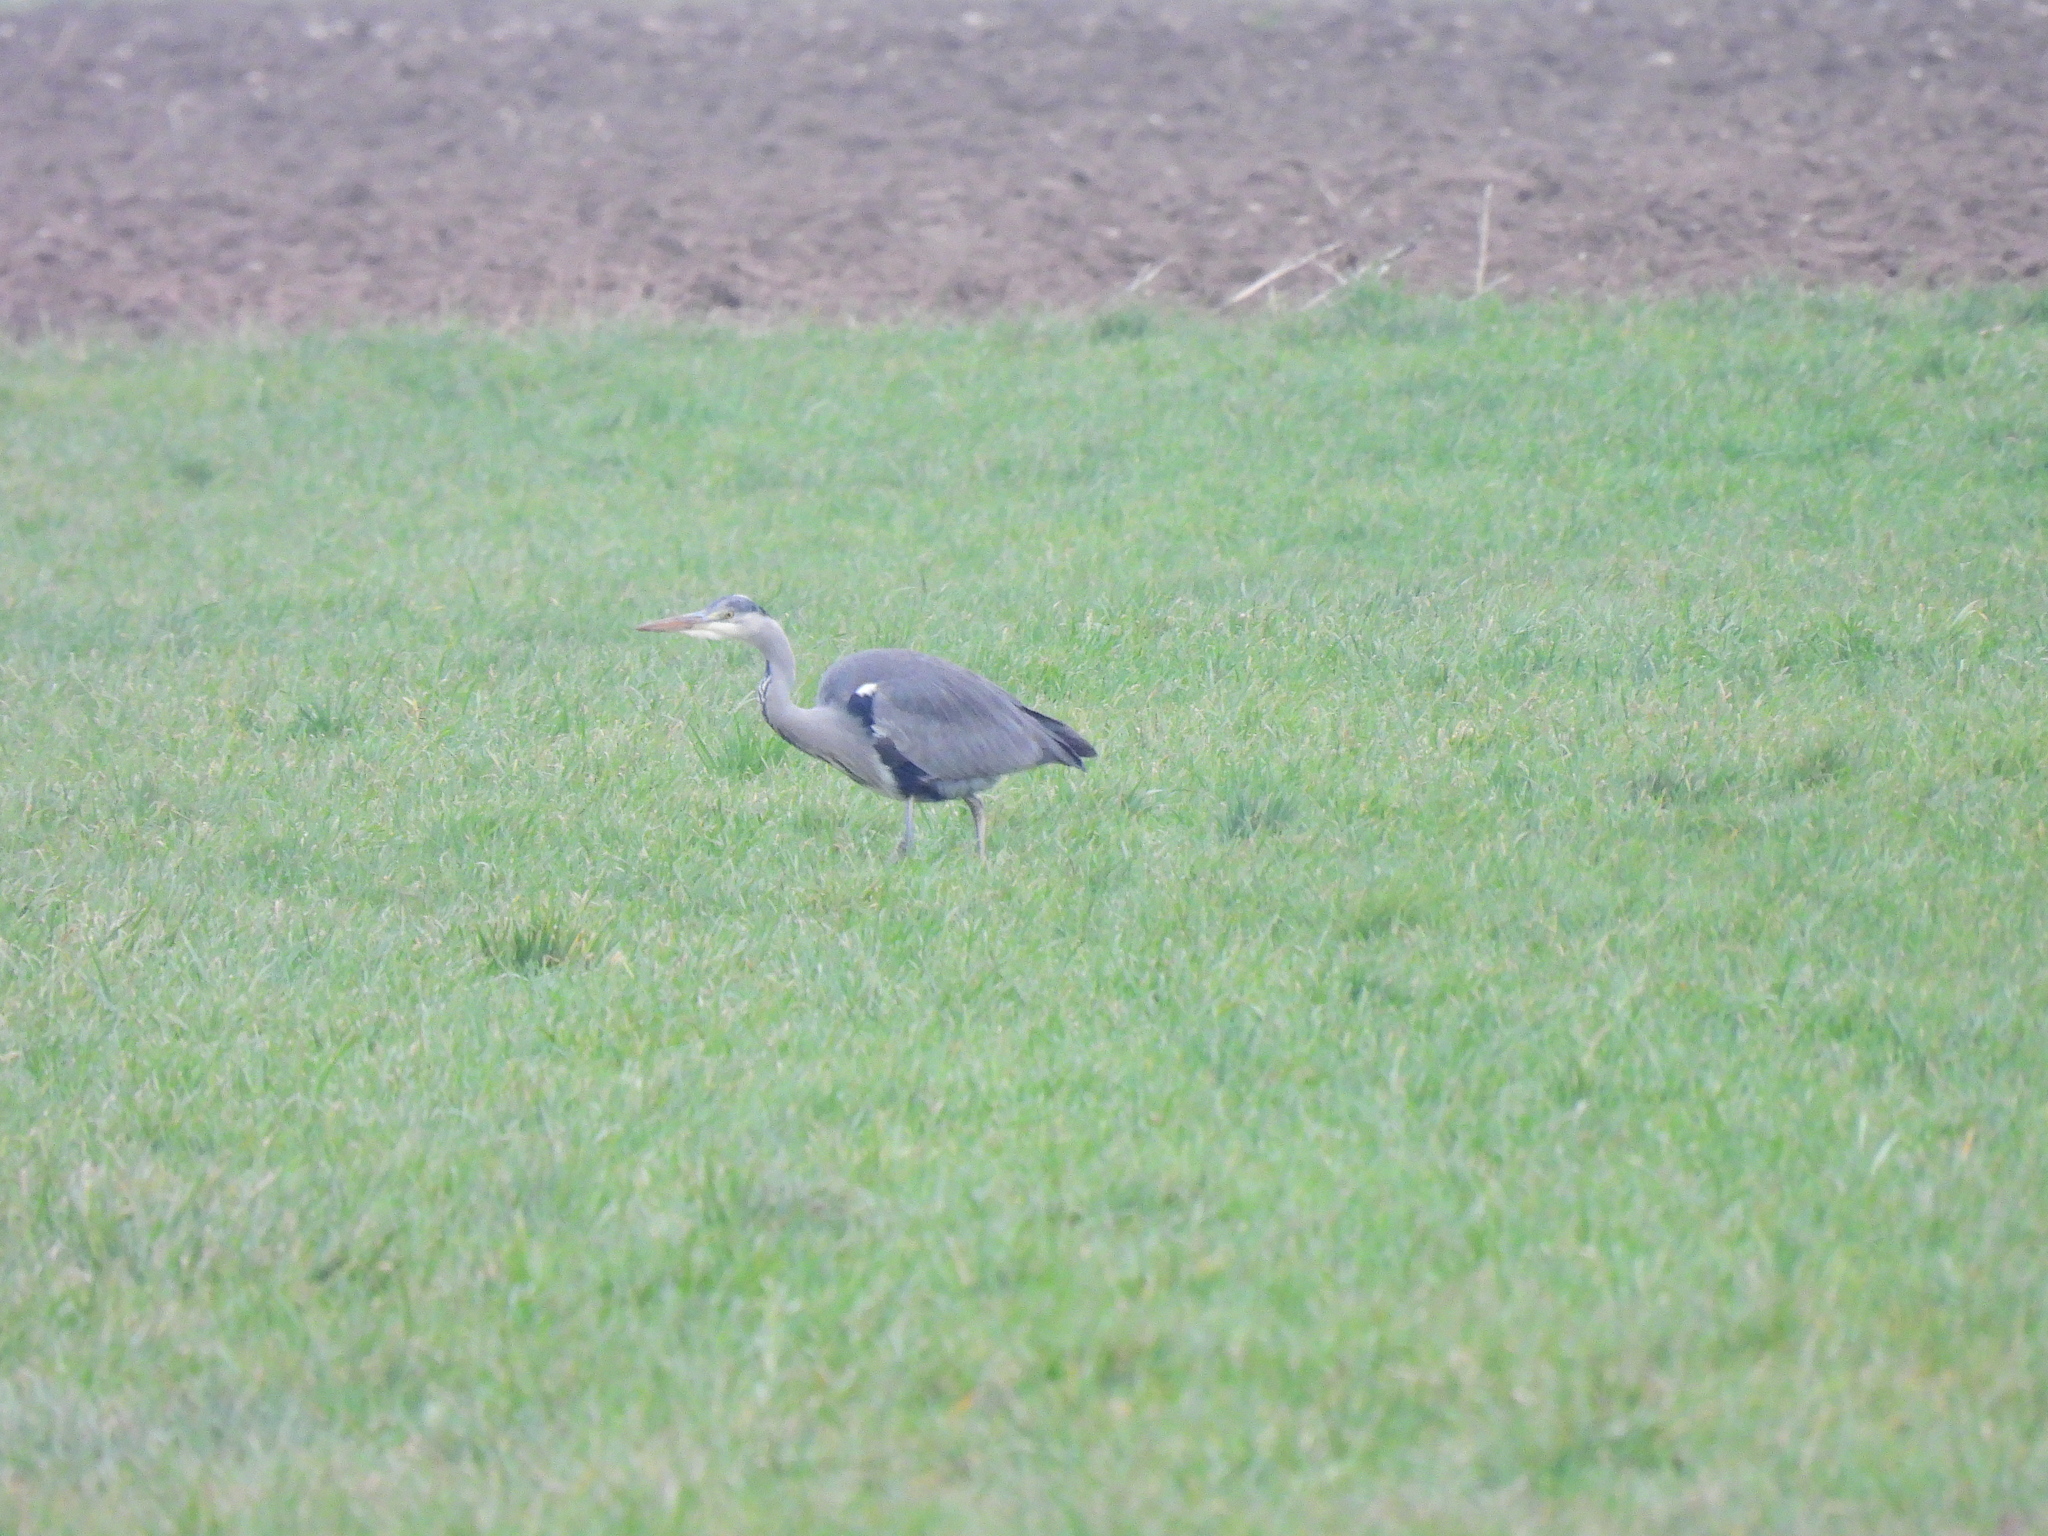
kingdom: Animalia
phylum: Chordata
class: Aves
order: Pelecaniformes
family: Ardeidae
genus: Ardea
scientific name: Ardea cinerea
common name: Grey heron
